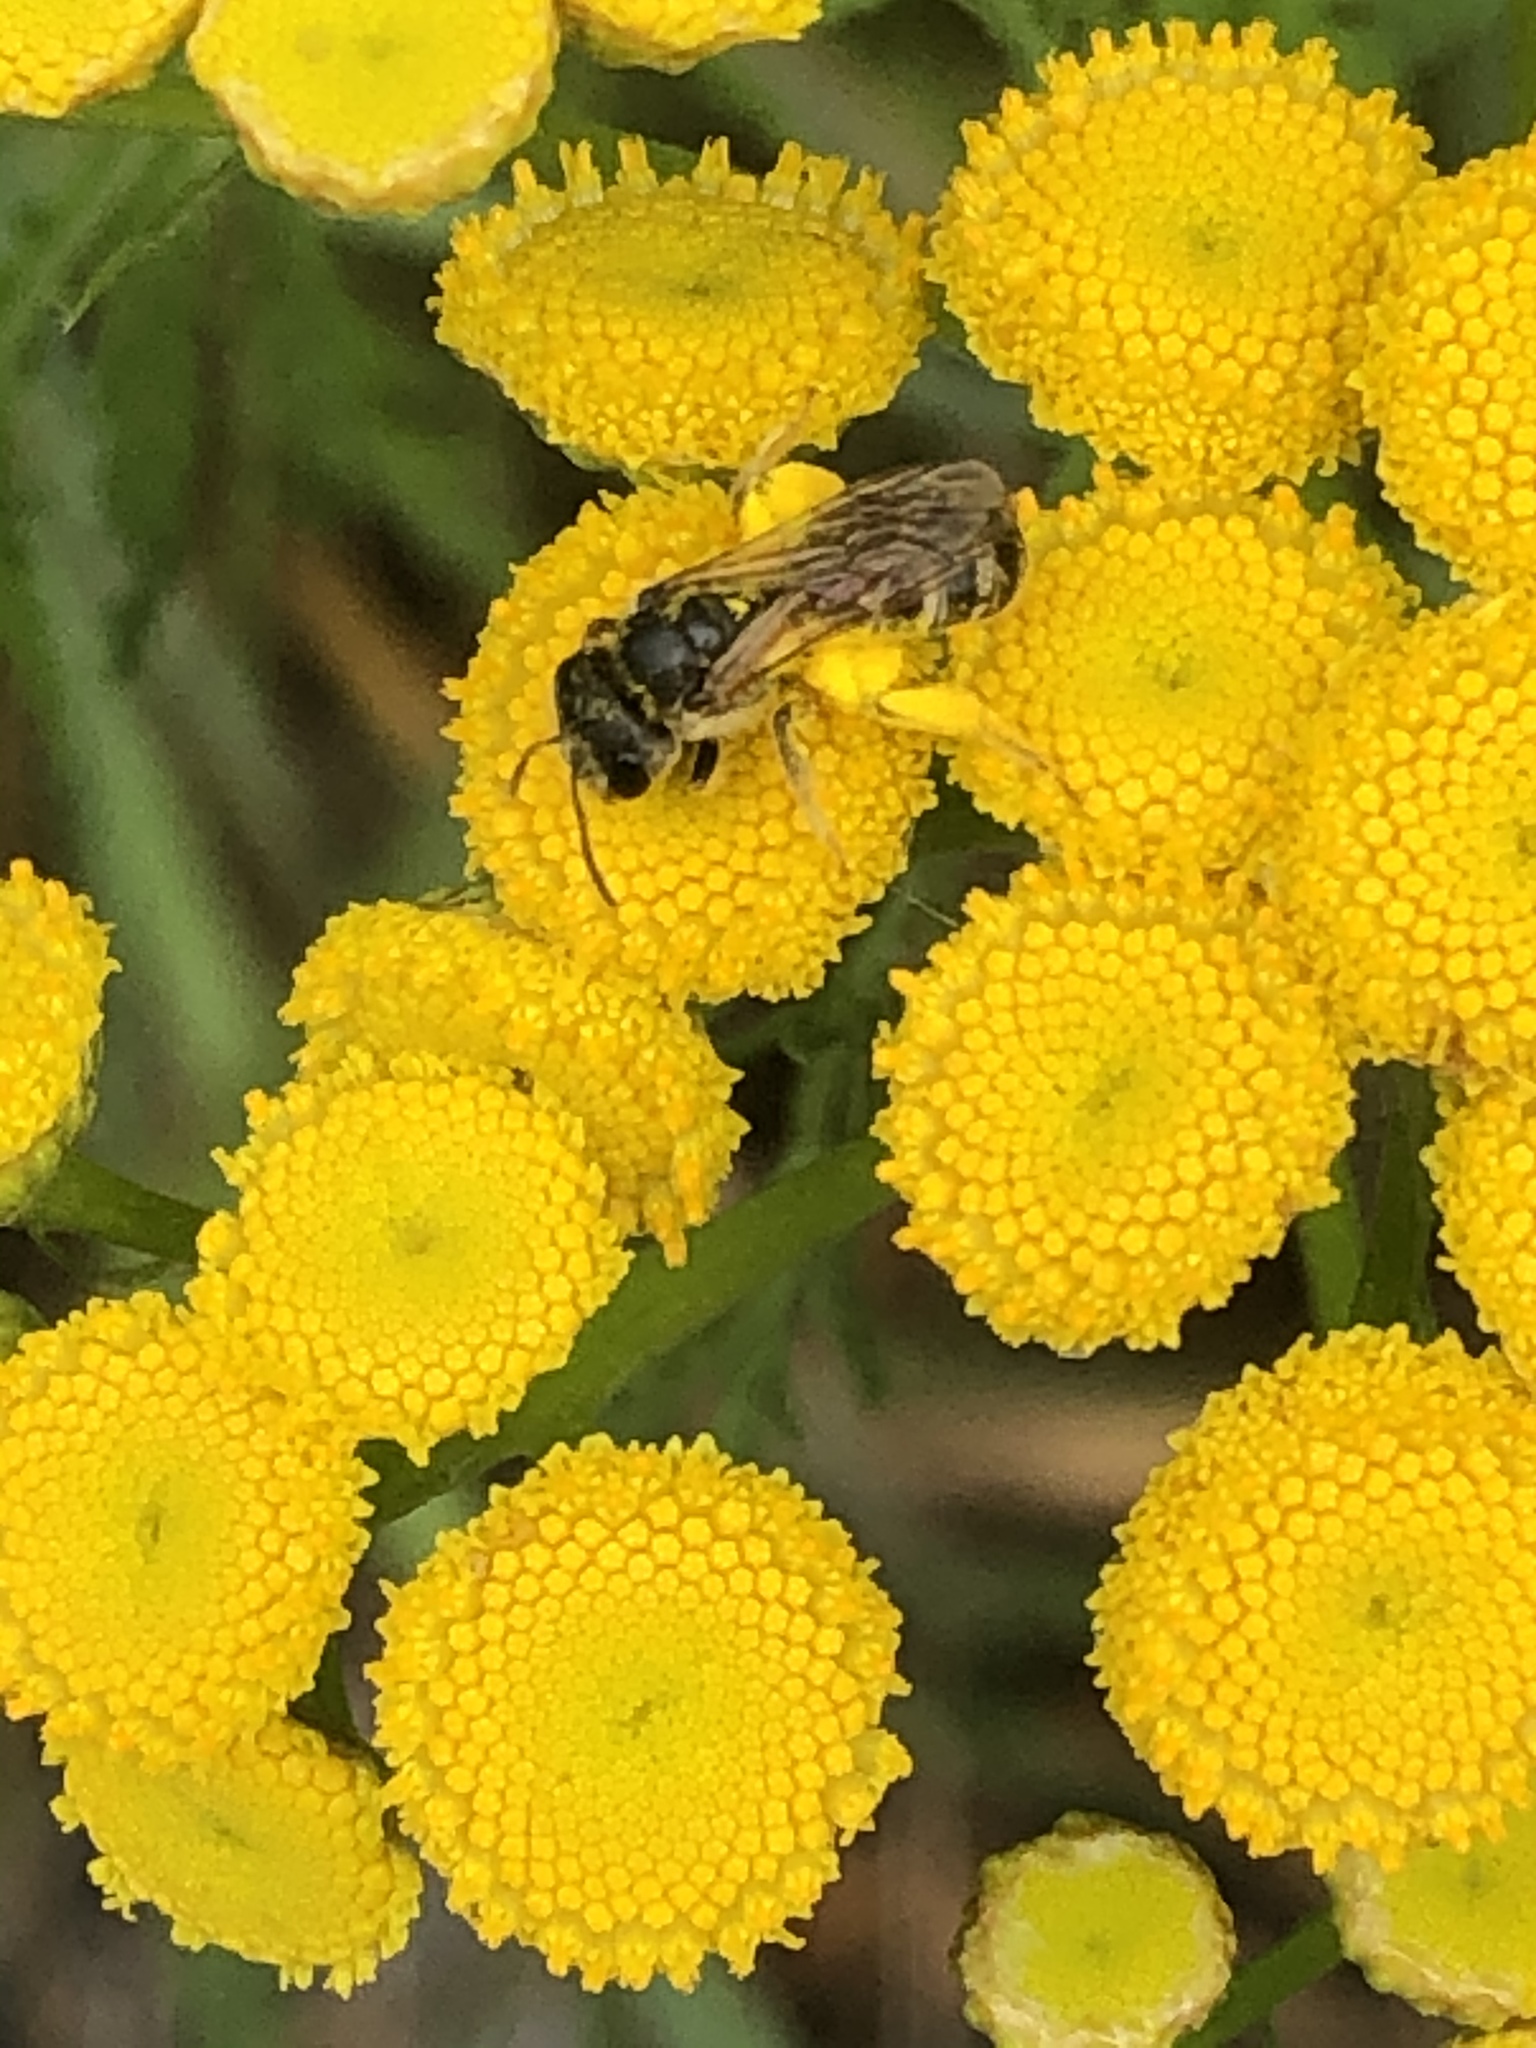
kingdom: Animalia
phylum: Arthropoda
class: Insecta
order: Hymenoptera
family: Halictidae
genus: Halictus
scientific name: Halictus ligatus
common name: Ligated furrow bee
